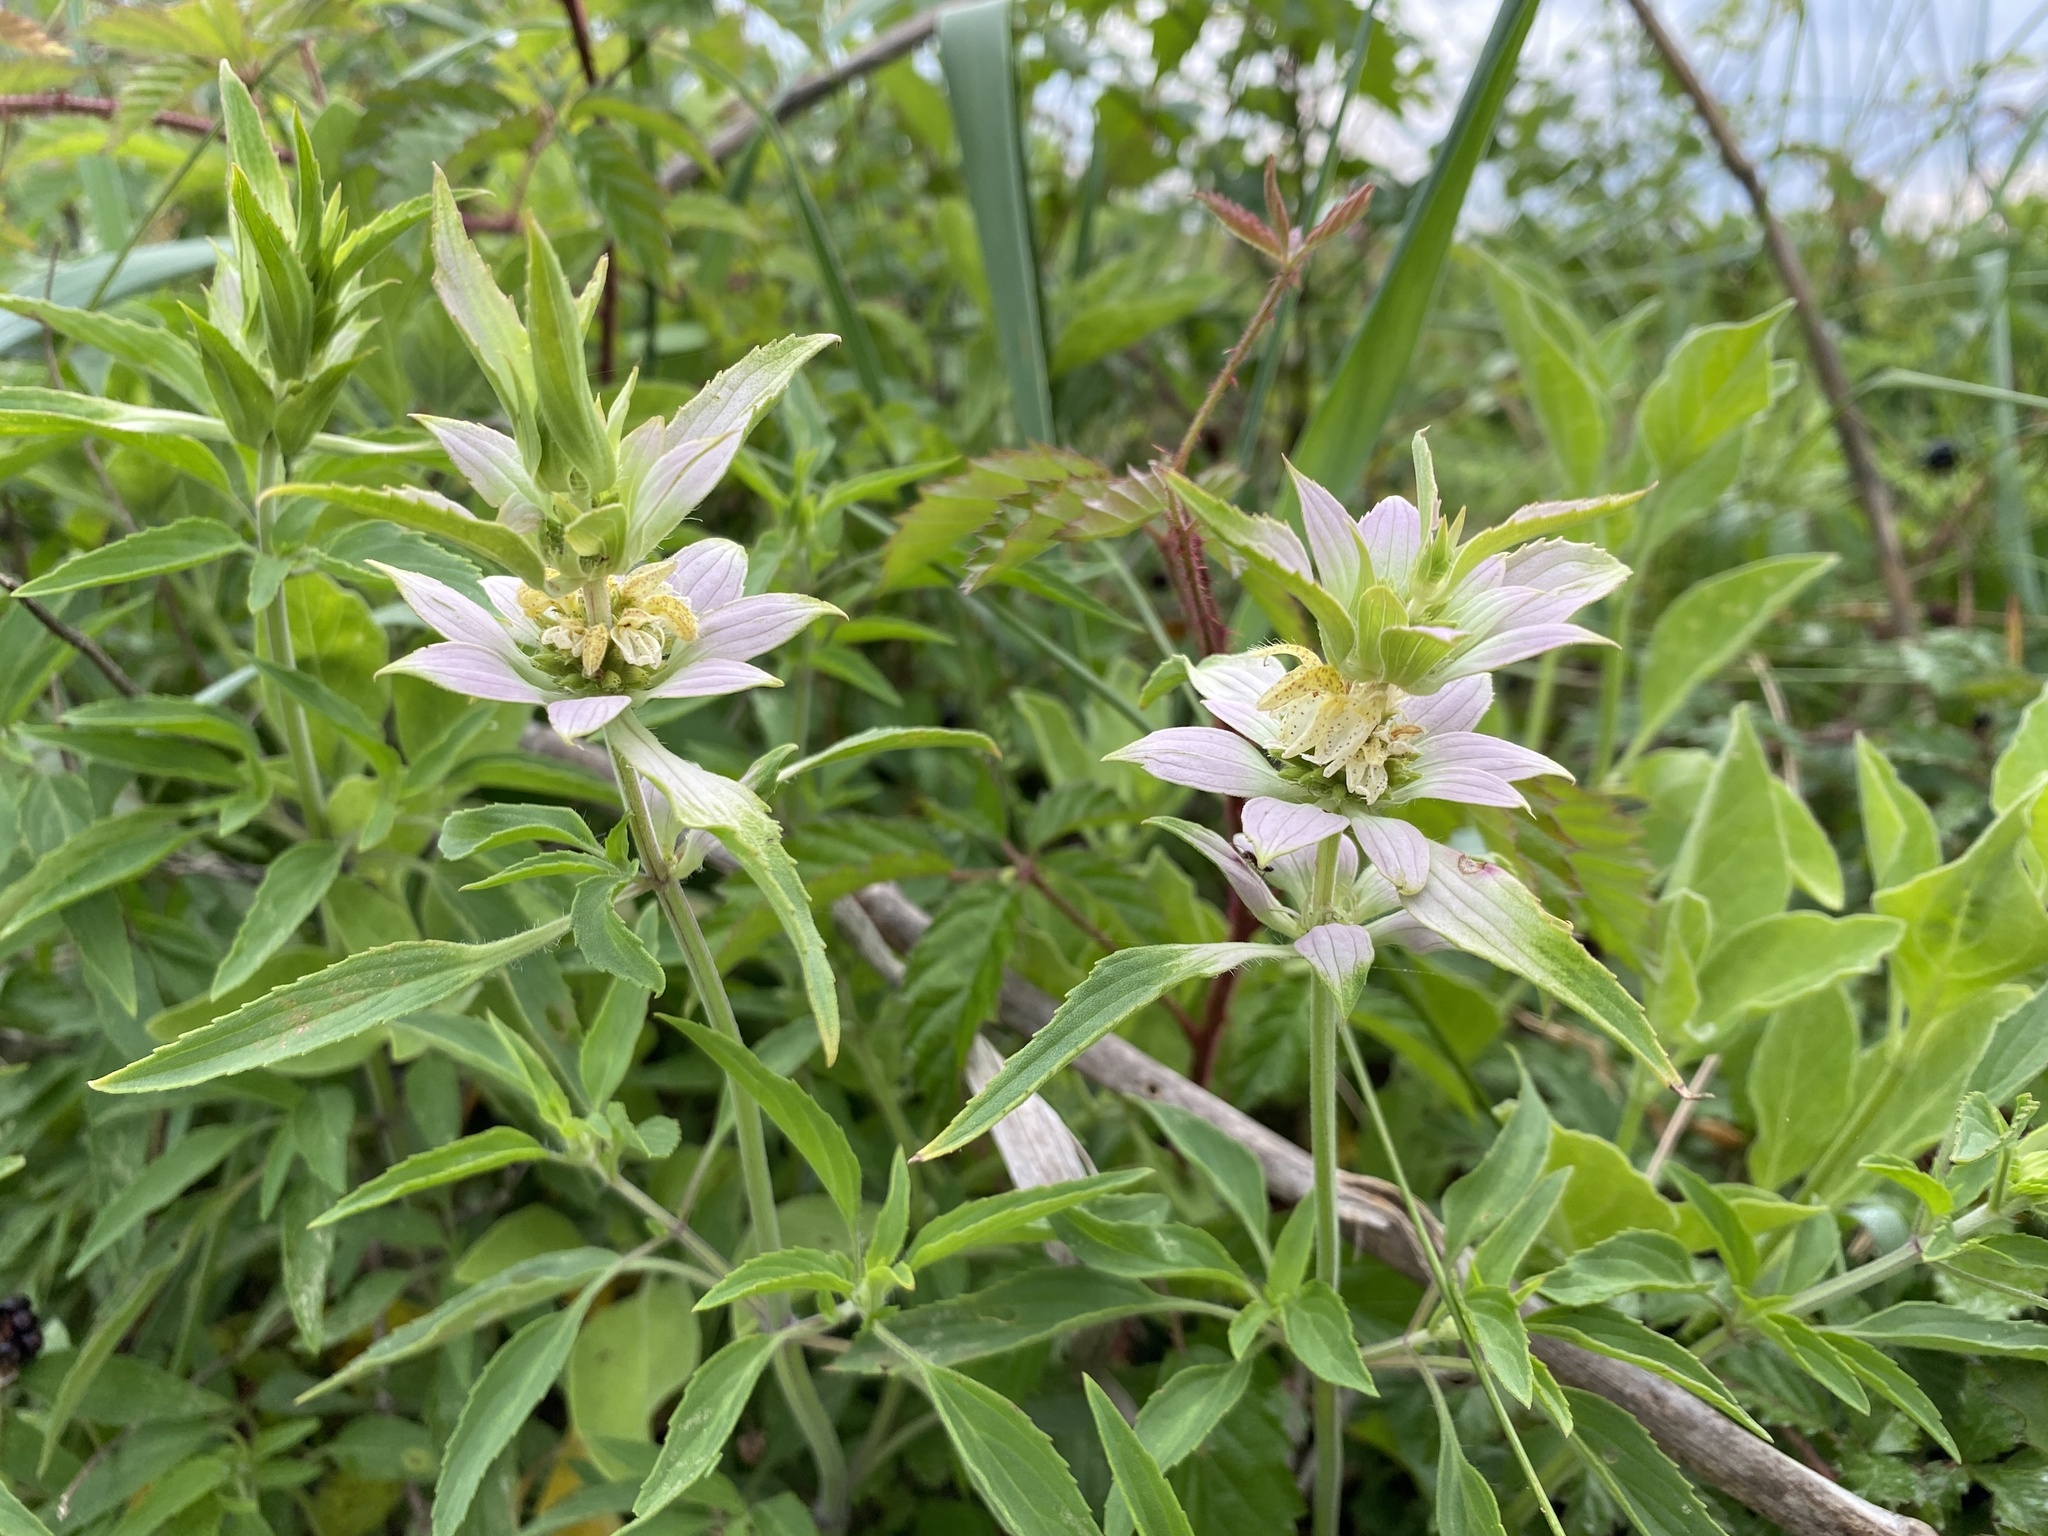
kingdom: Plantae
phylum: Tracheophyta
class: Magnoliopsida
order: Lamiales
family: Lamiaceae
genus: Monarda
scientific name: Monarda punctata
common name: Dotted monarda
